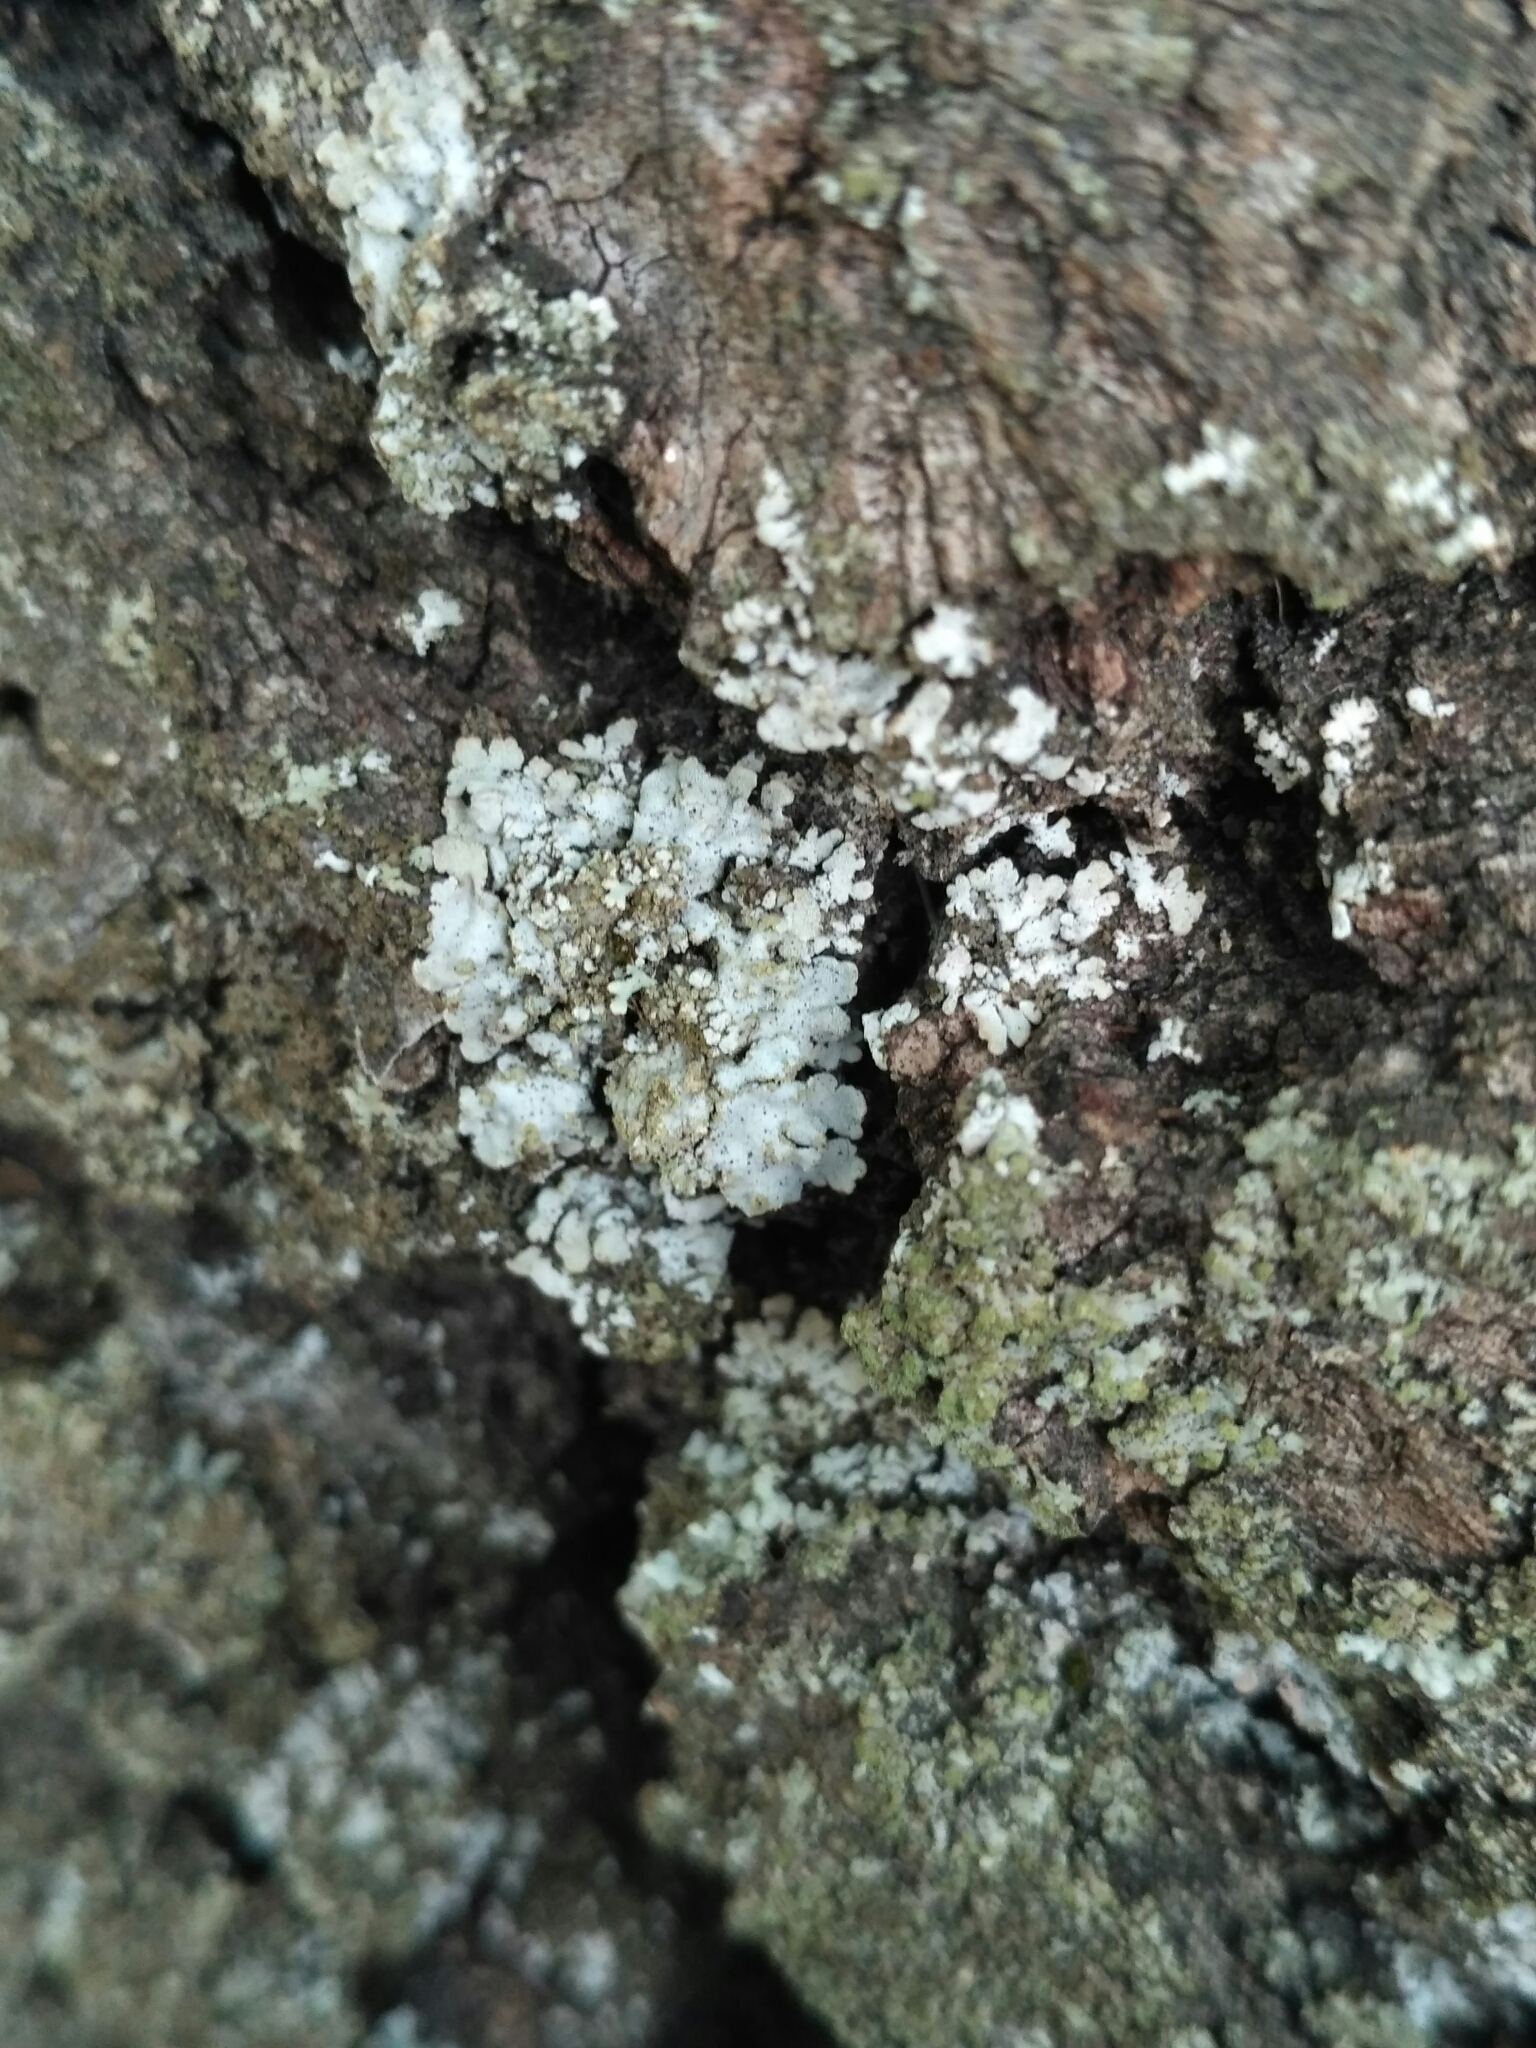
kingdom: Fungi
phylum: Ascomycota
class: Lecanoromycetes
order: Caliciales
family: Physciaceae
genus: Poeltonia
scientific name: Poeltonia grisea
